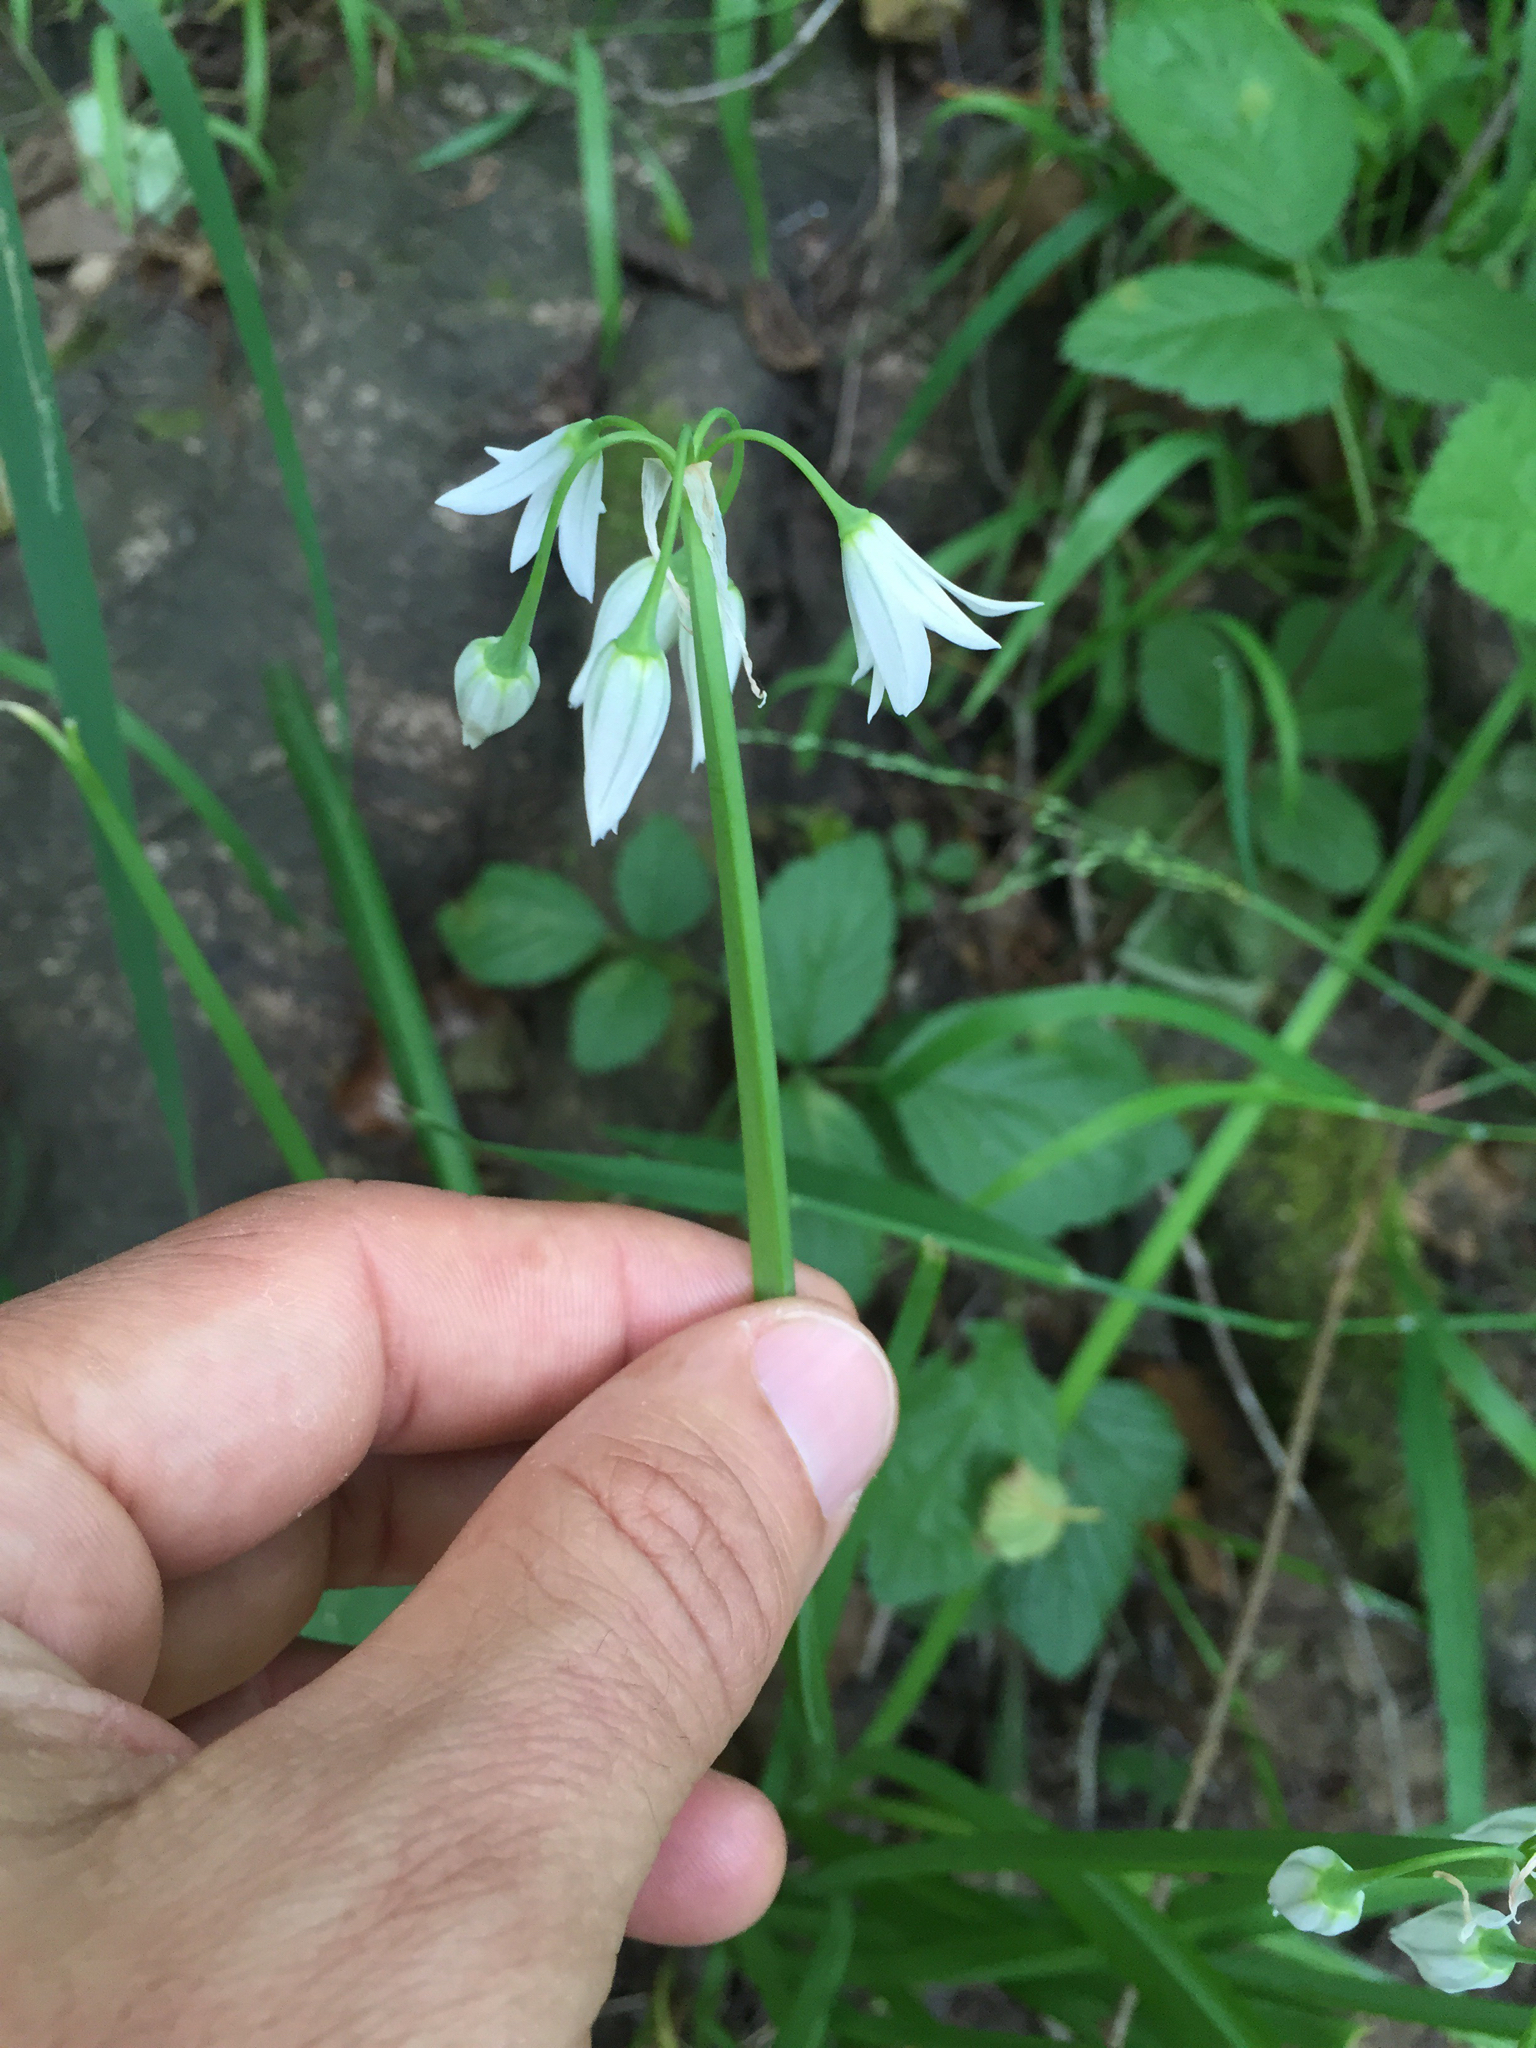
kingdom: Plantae
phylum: Tracheophyta
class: Liliopsida
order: Asparagales
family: Amaryllidaceae
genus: Allium
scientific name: Allium triquetrum
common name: Three-cornered garlic
